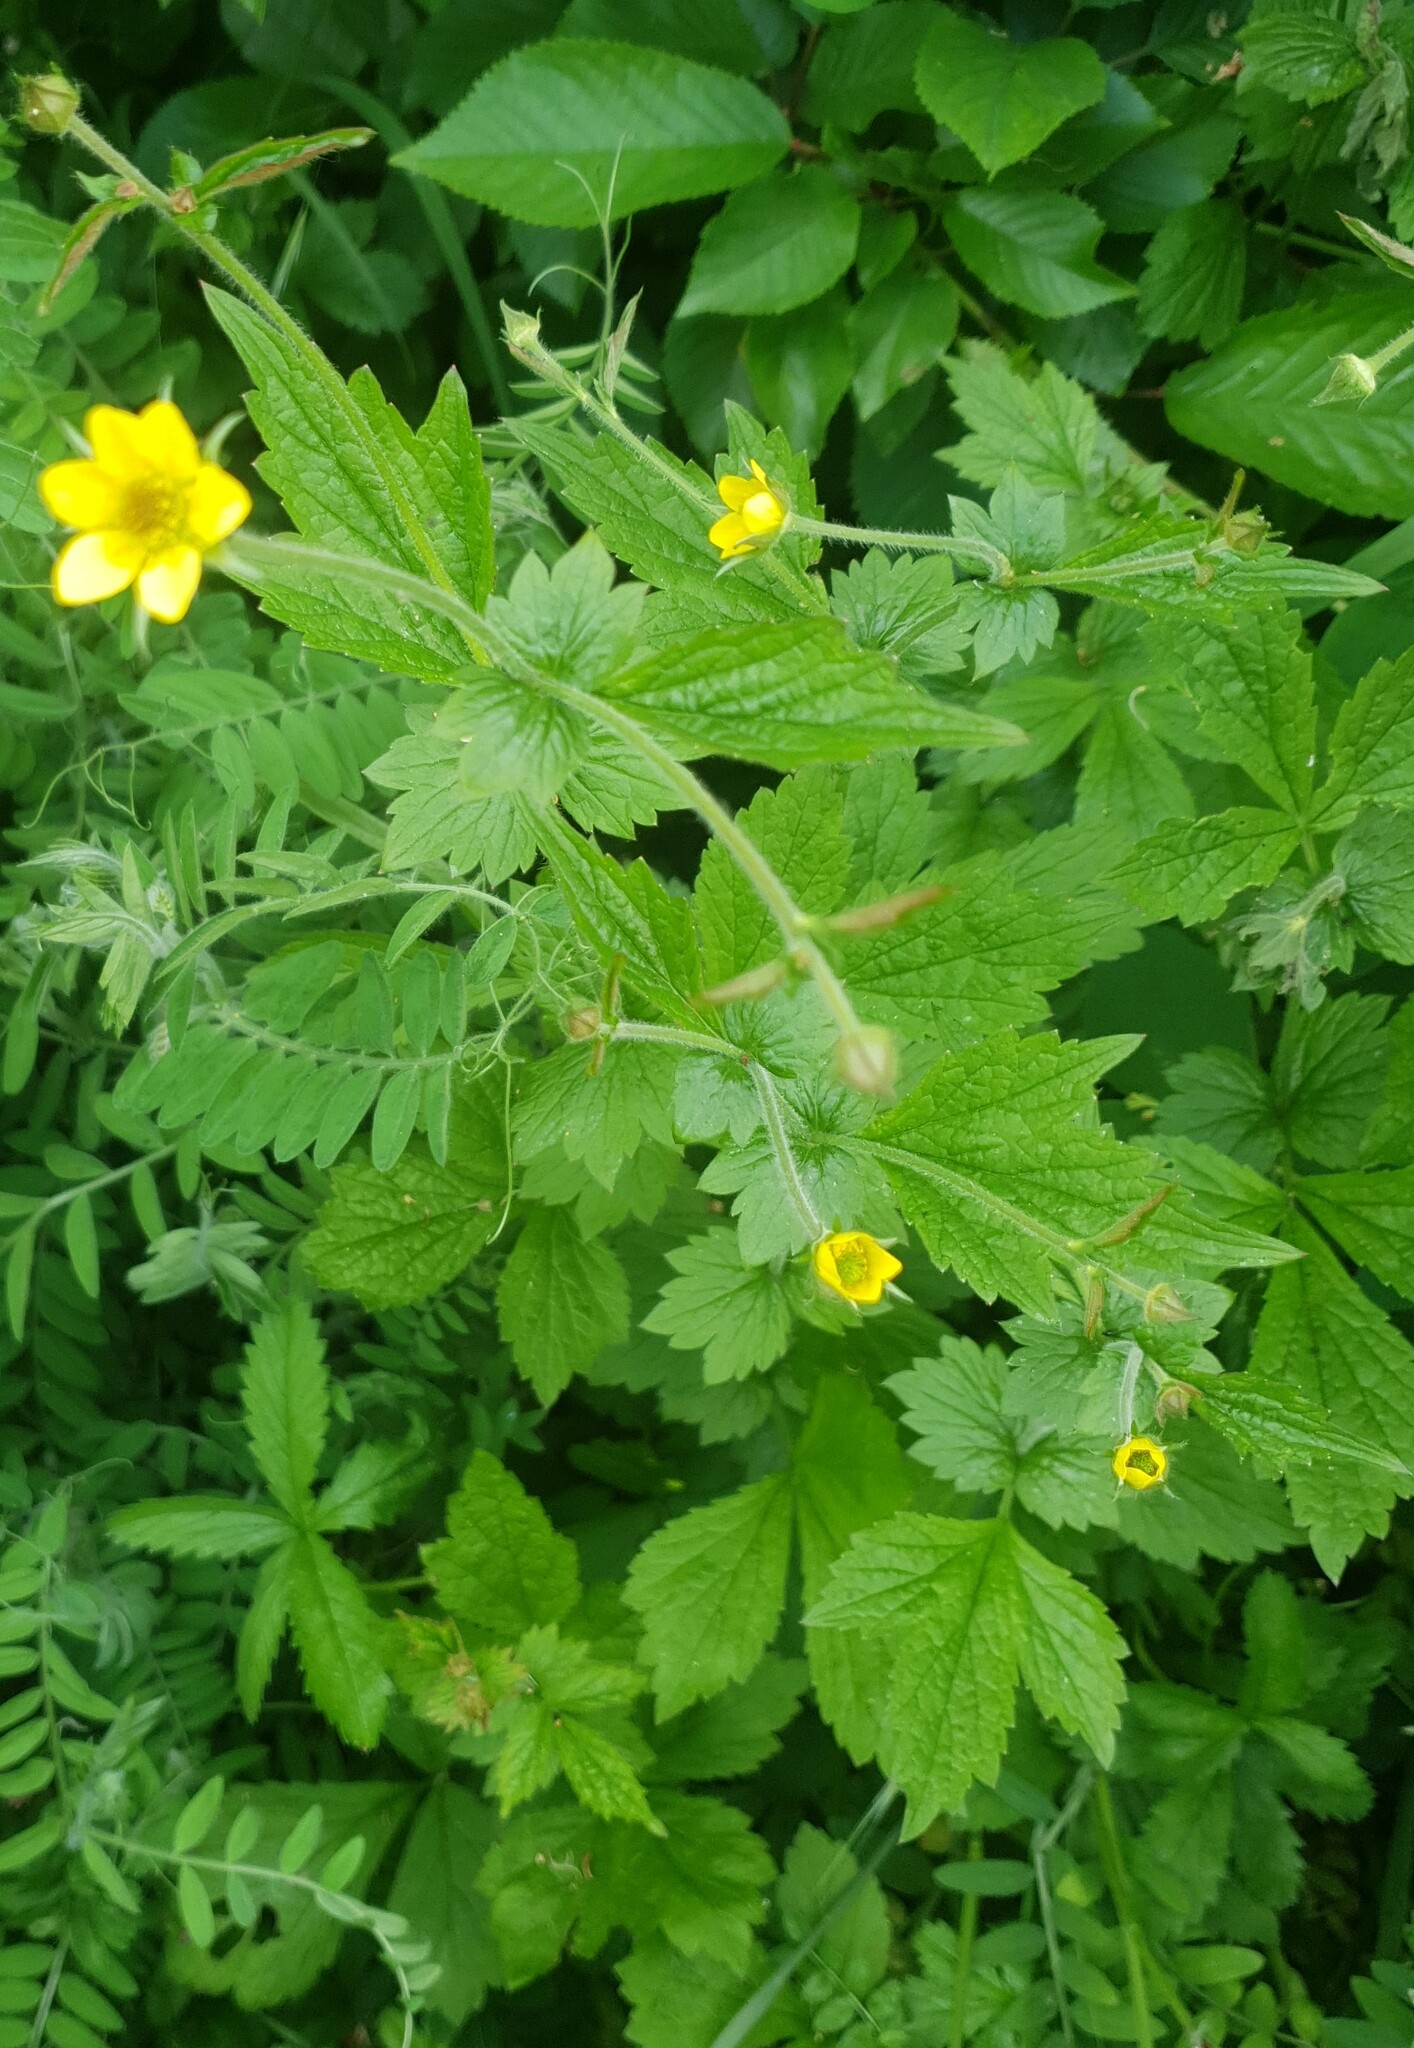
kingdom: Plantae
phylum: Tracheophyta
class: Magnoliopsida
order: Rosales
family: Rosaceae
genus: Geum
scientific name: Geum urbanum
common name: Wood avens
